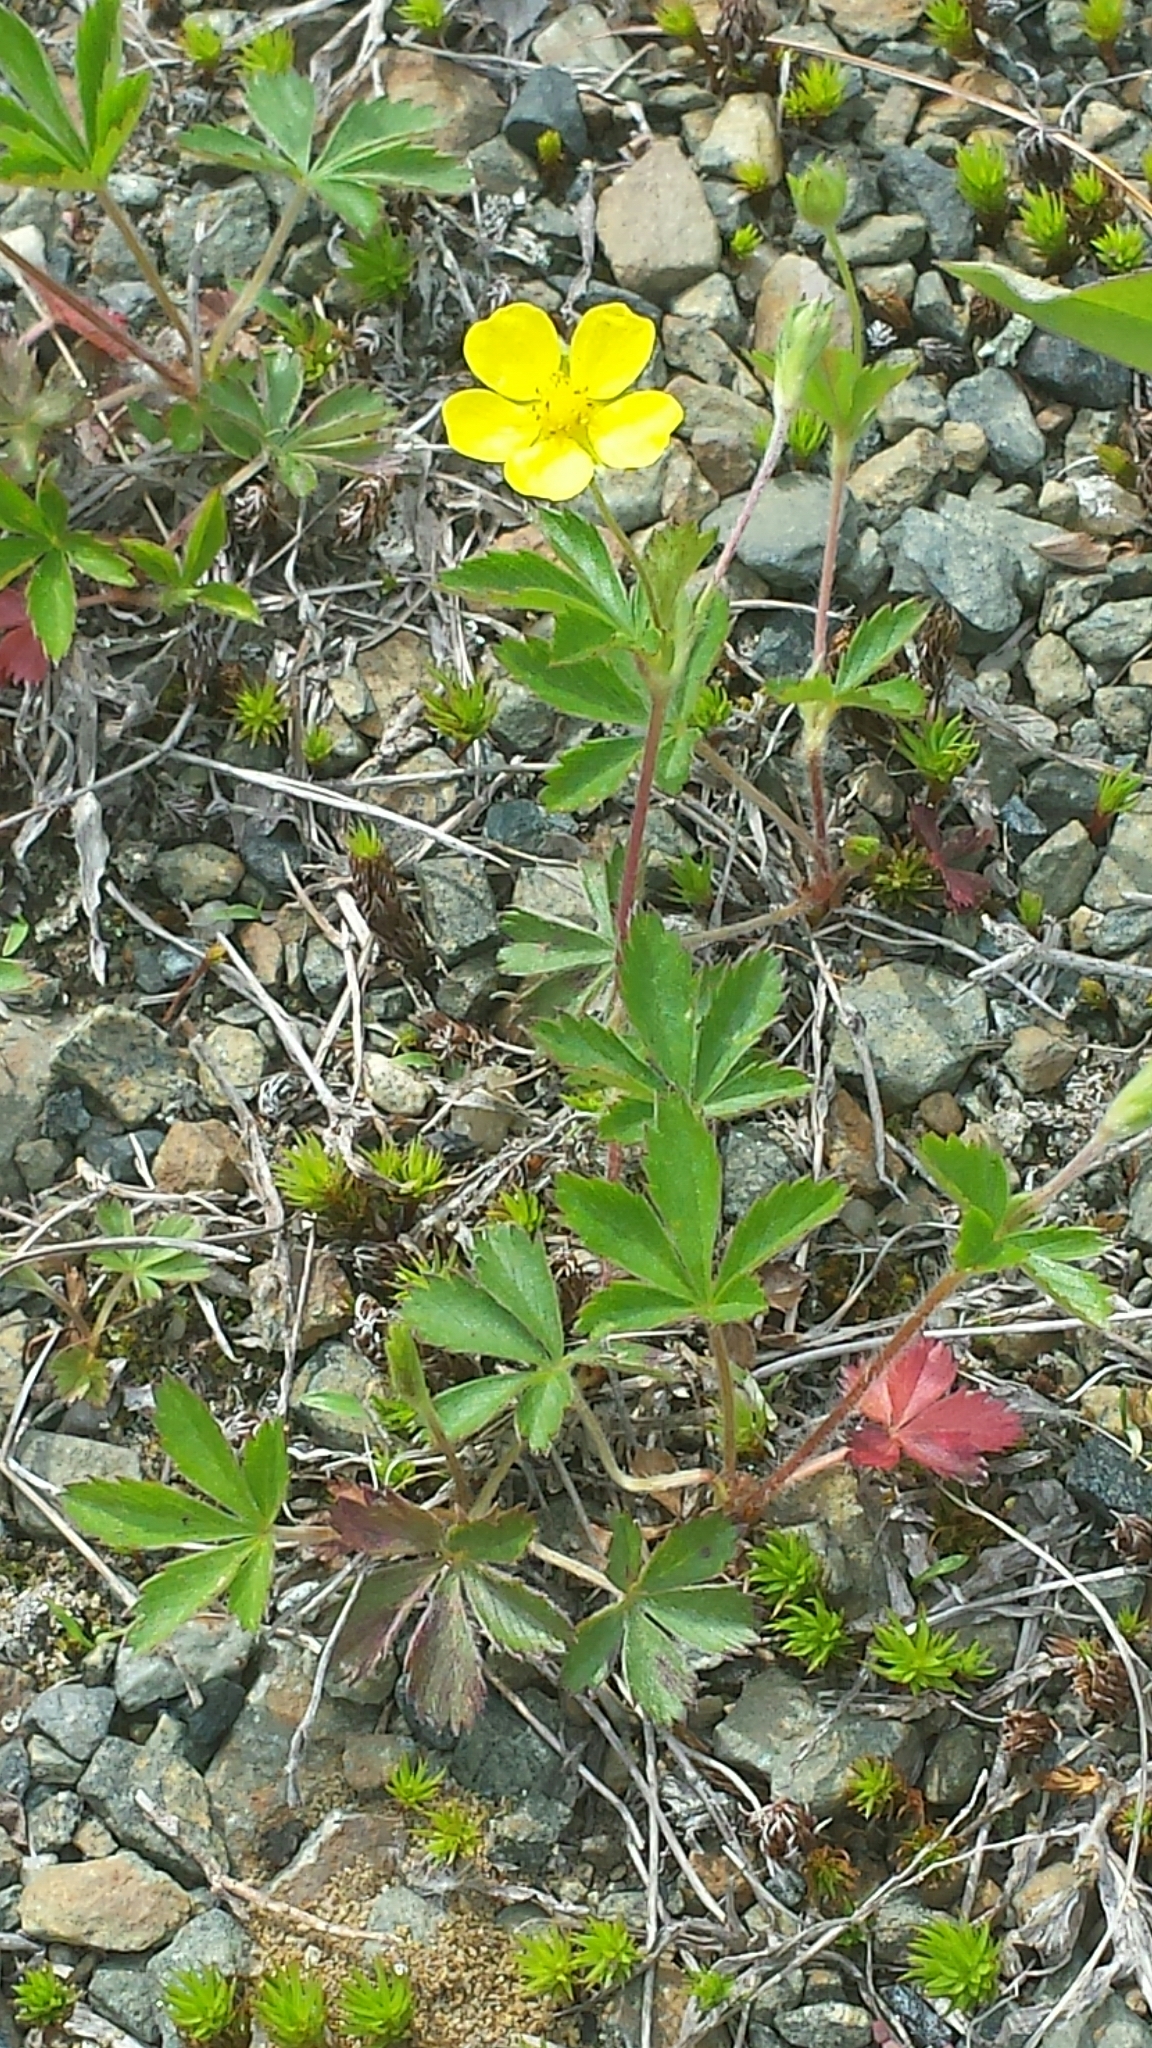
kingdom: Plantae
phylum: Tracheophyta
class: Magnoliopsida
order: Rosales
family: Rosaceae
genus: Potentilla
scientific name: Potentilla canadensis
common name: Canada cinquefoil
